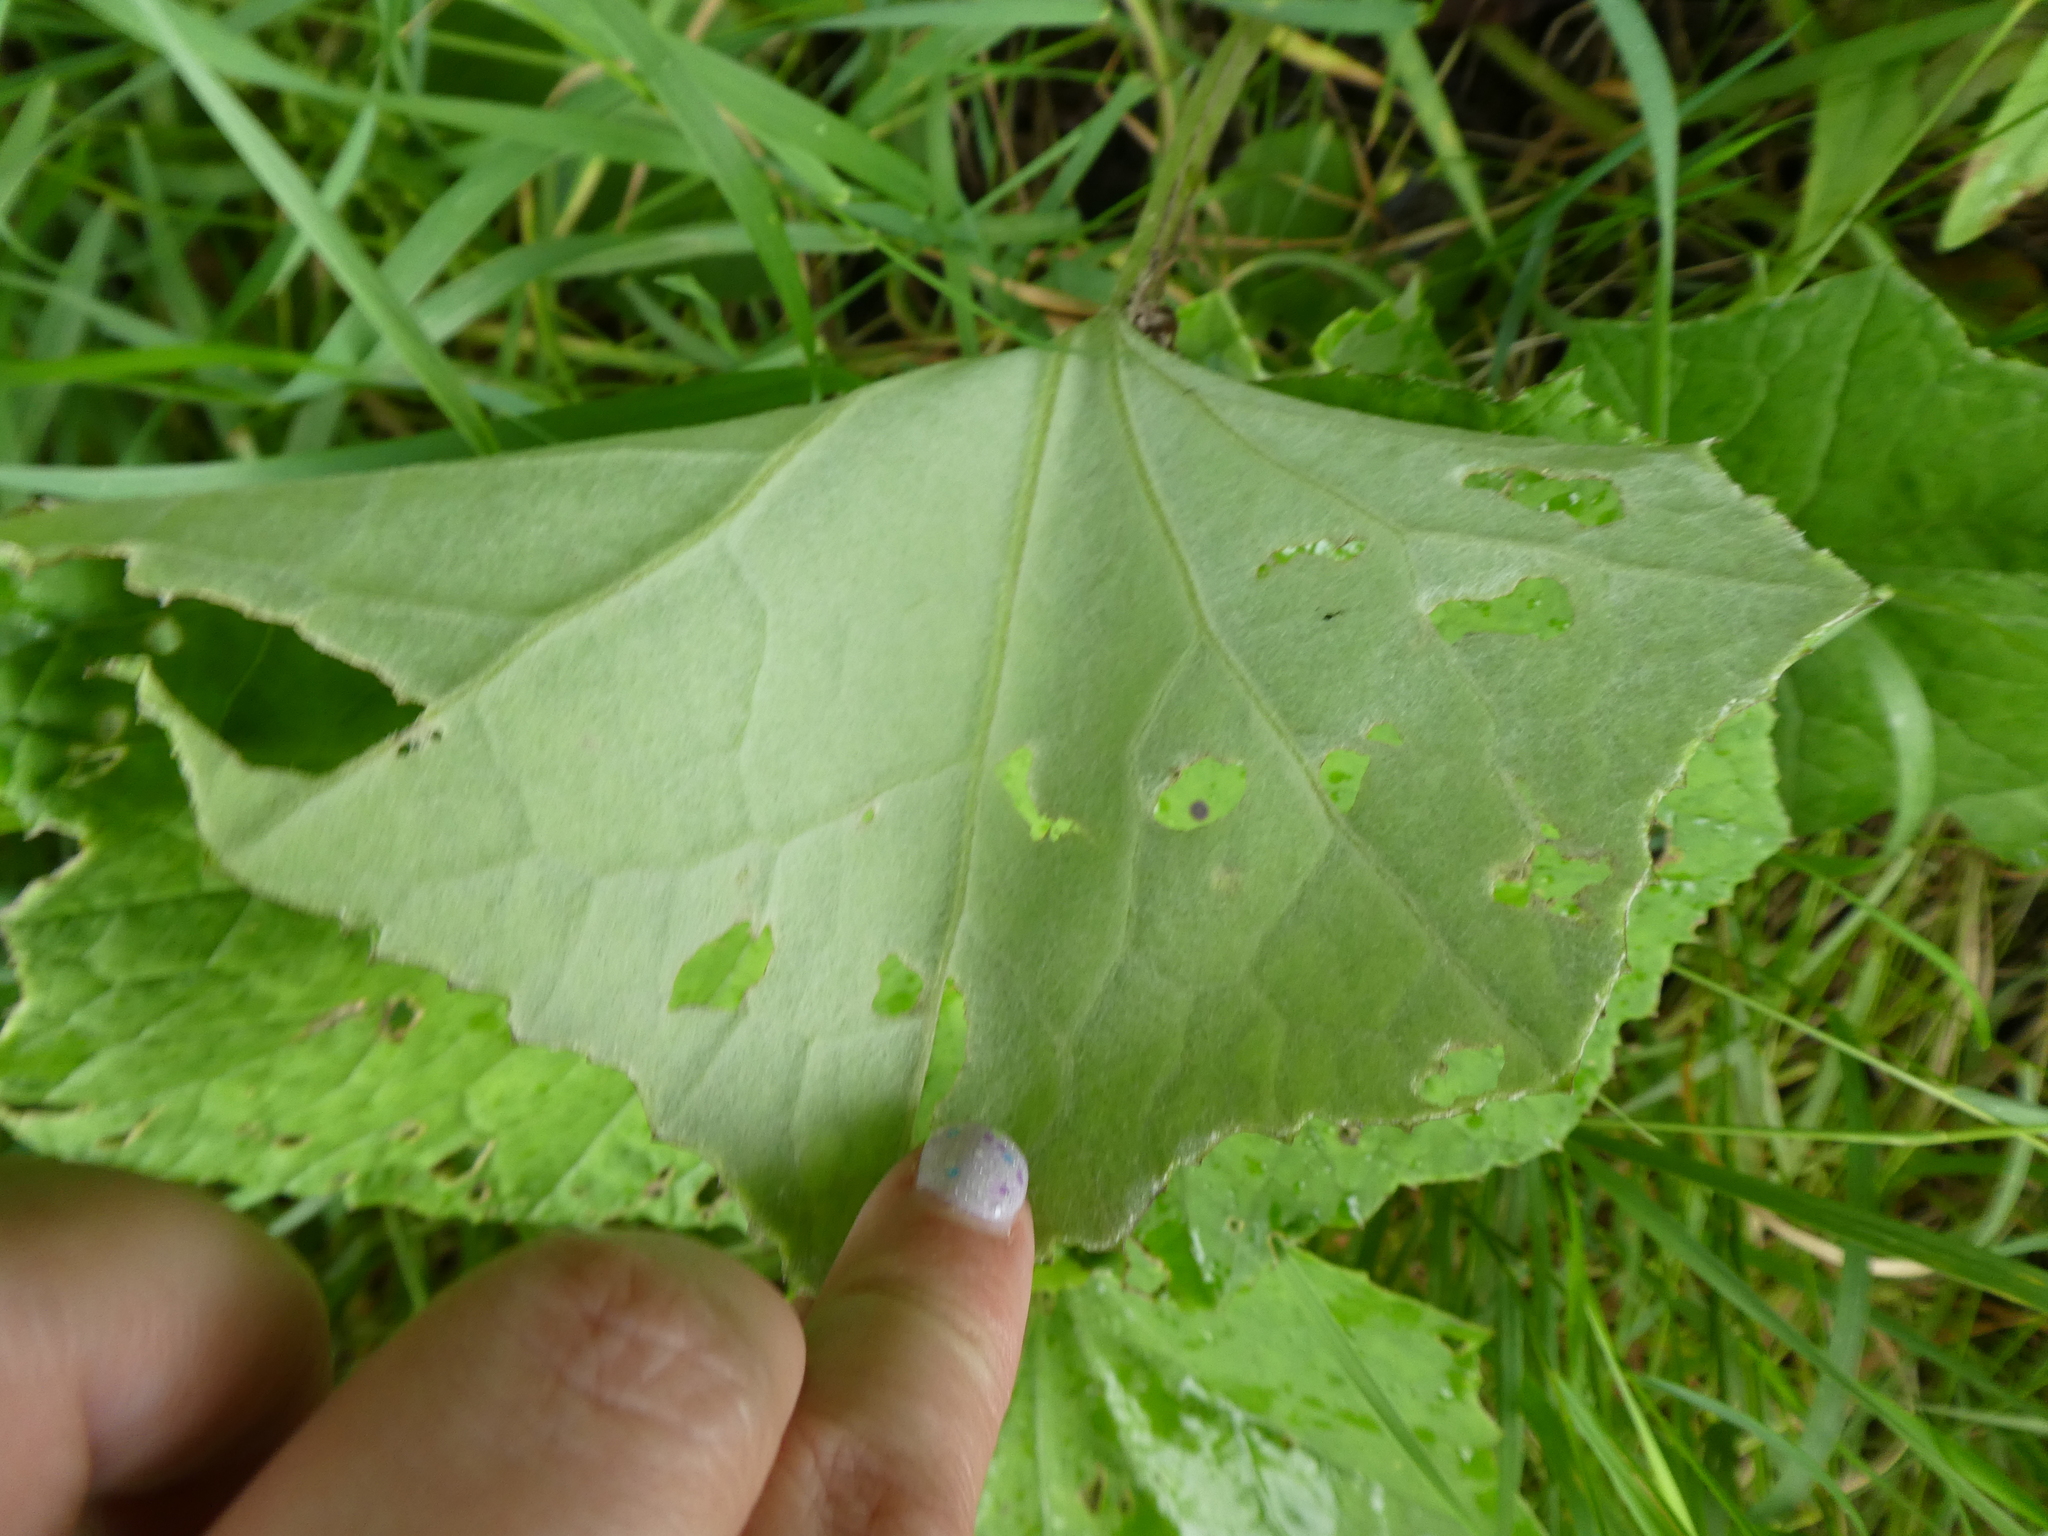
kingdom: Plantae
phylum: Tracheophyta
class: Magnoliopsida
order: Asterales
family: Asteraceae
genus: Tussilago
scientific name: Tussilago farfara
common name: Coltsfoot
